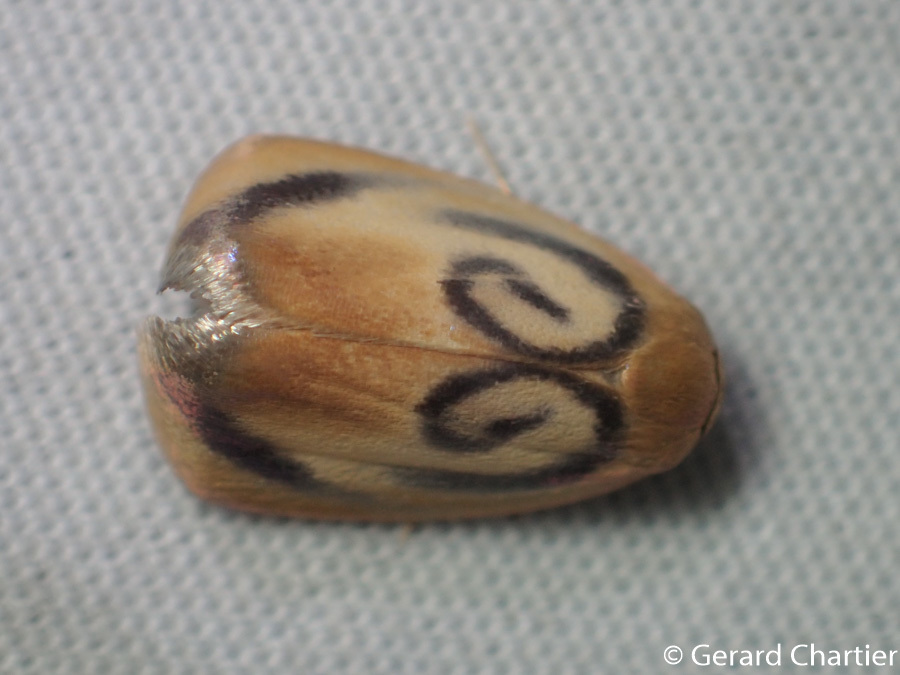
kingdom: Animalia
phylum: Arthropoda
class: Insecta
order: Lepidoptera
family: Erebidae
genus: Trischalis
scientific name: Trischalis subaurana
